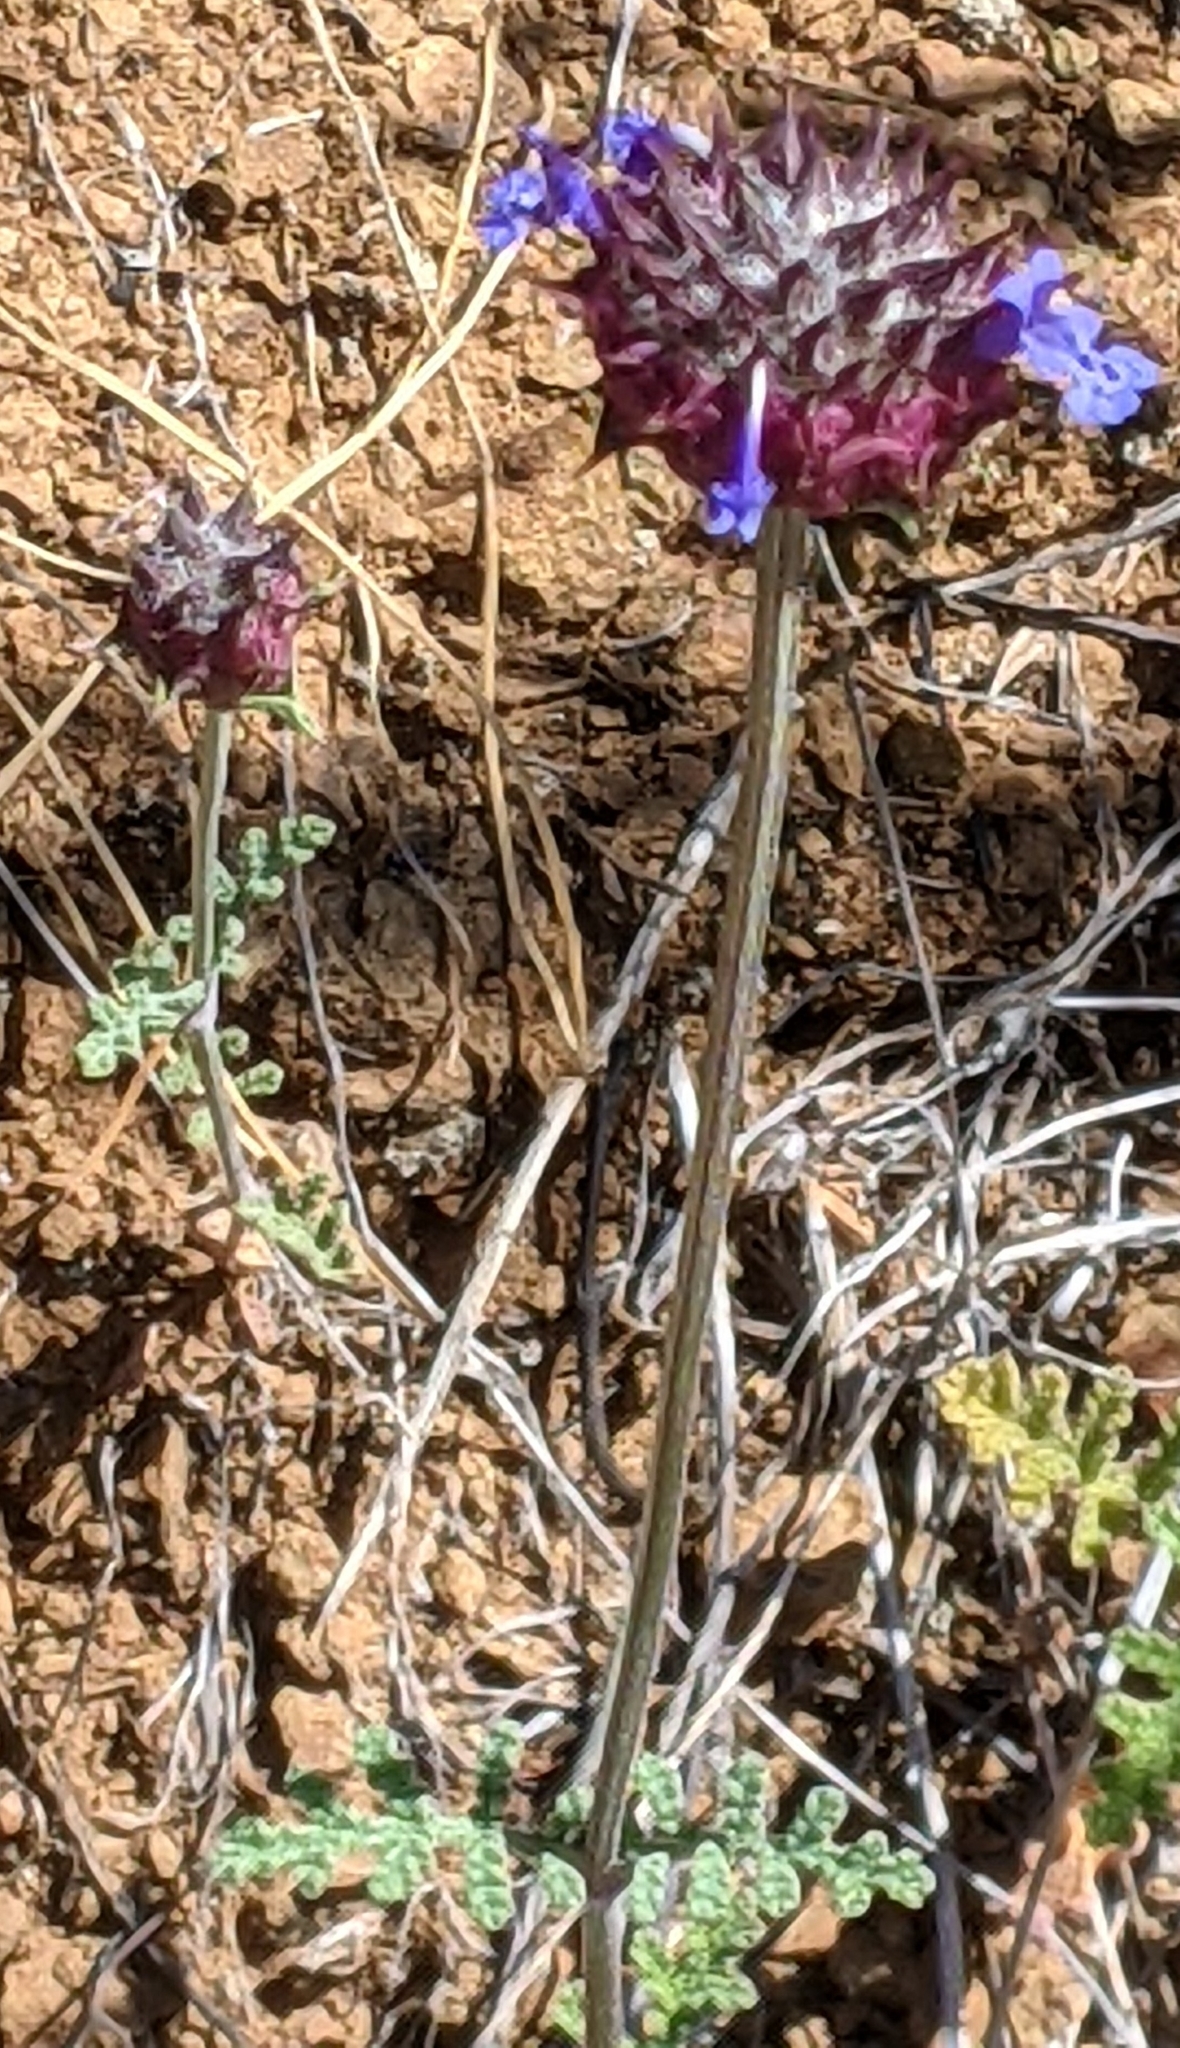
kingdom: Plantae
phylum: Tracheophyta
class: Magnoliopsida
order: Lamiales
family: Lamiaceae
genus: Salvia
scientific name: Salvia columbariae
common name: Chia
